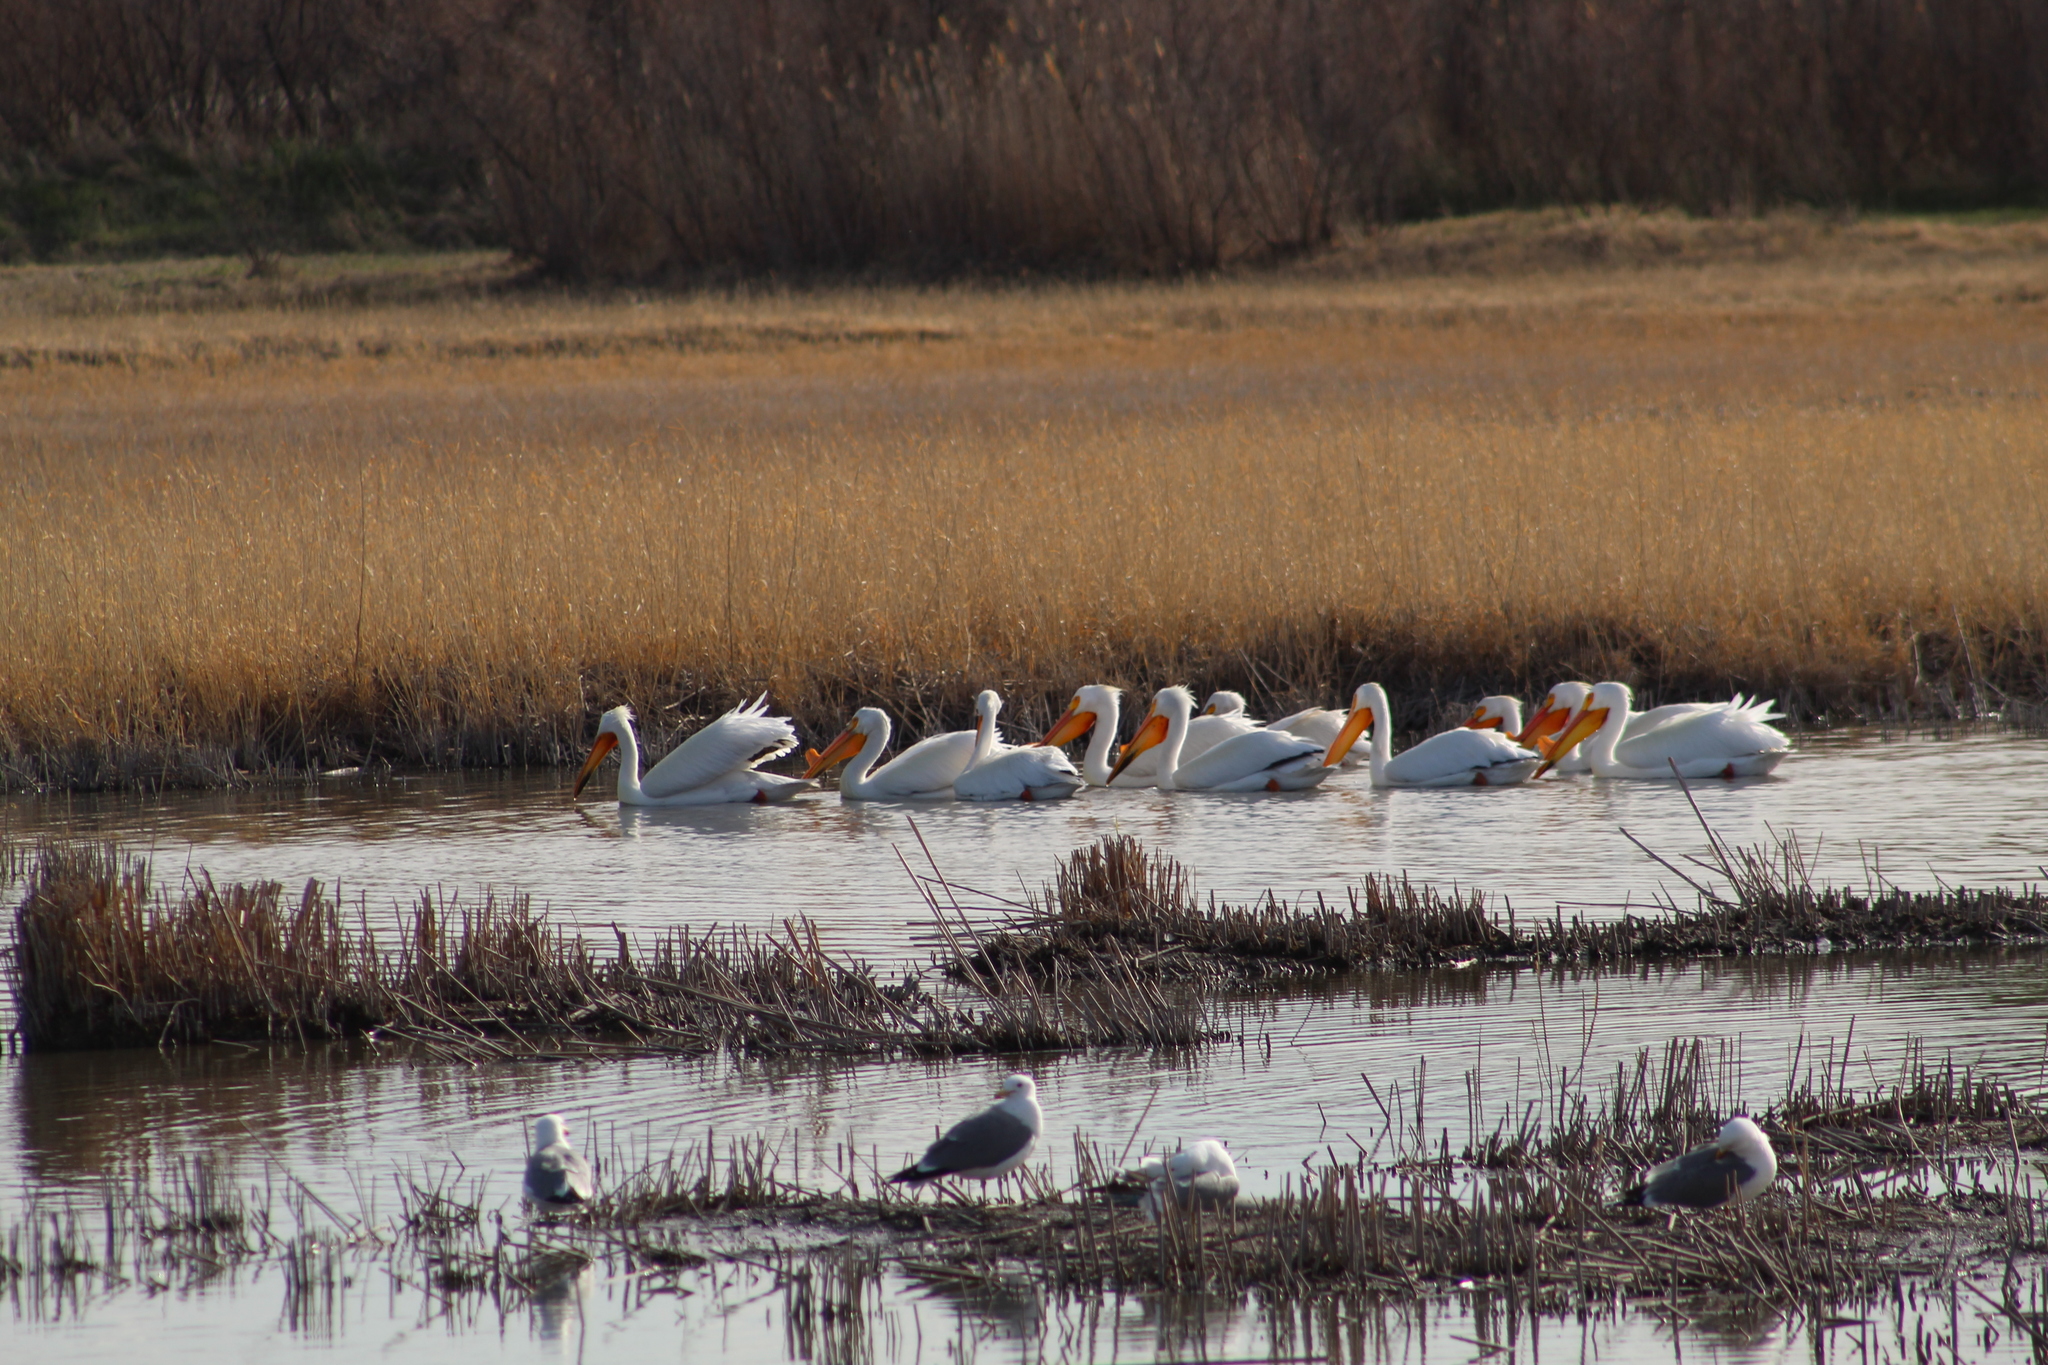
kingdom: Animalia
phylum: Chordata
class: Aves
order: Pelecaniformes
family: Pelecanidae
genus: Pelecanus
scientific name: Pelecanus erythrorhynchos
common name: American white pelican
